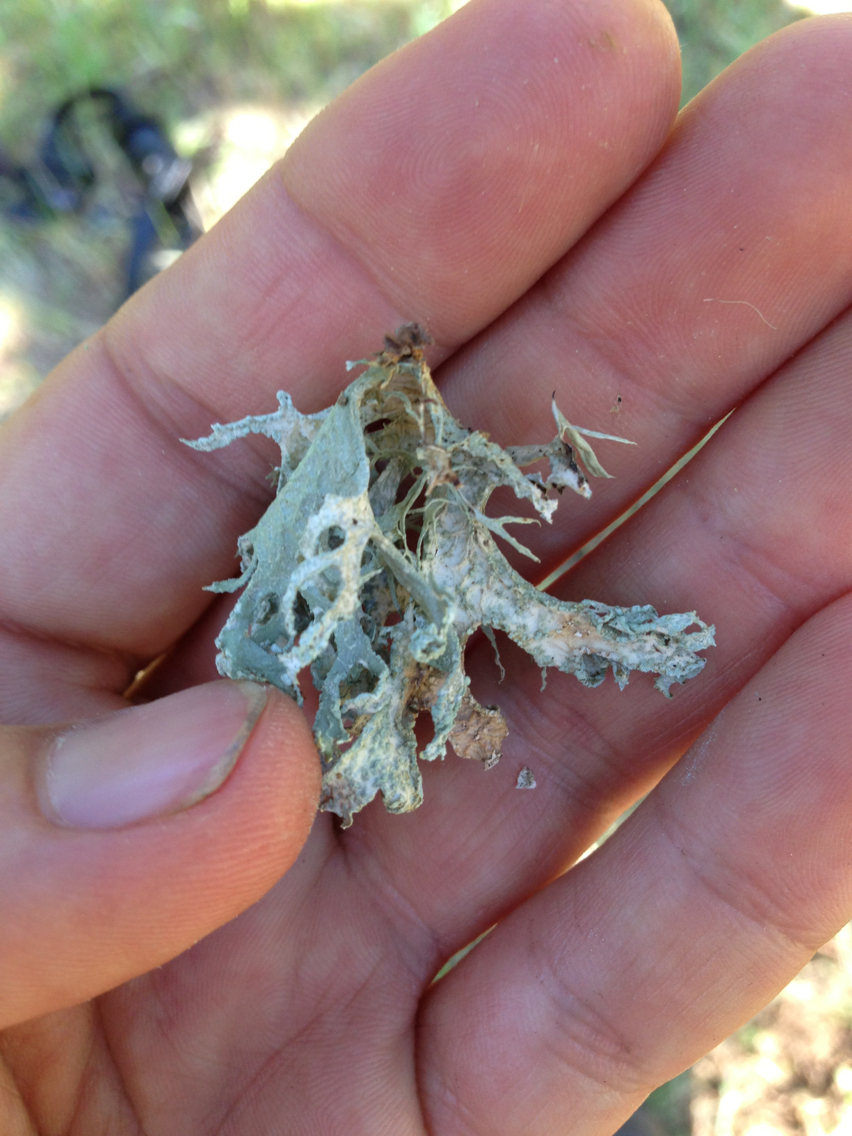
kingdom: Fungi
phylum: Ascomycota
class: Lecanoromycetes
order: Lecanorales
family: Parmeliaceae
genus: Evernia
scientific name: Evernia prunastri
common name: Oak moss
